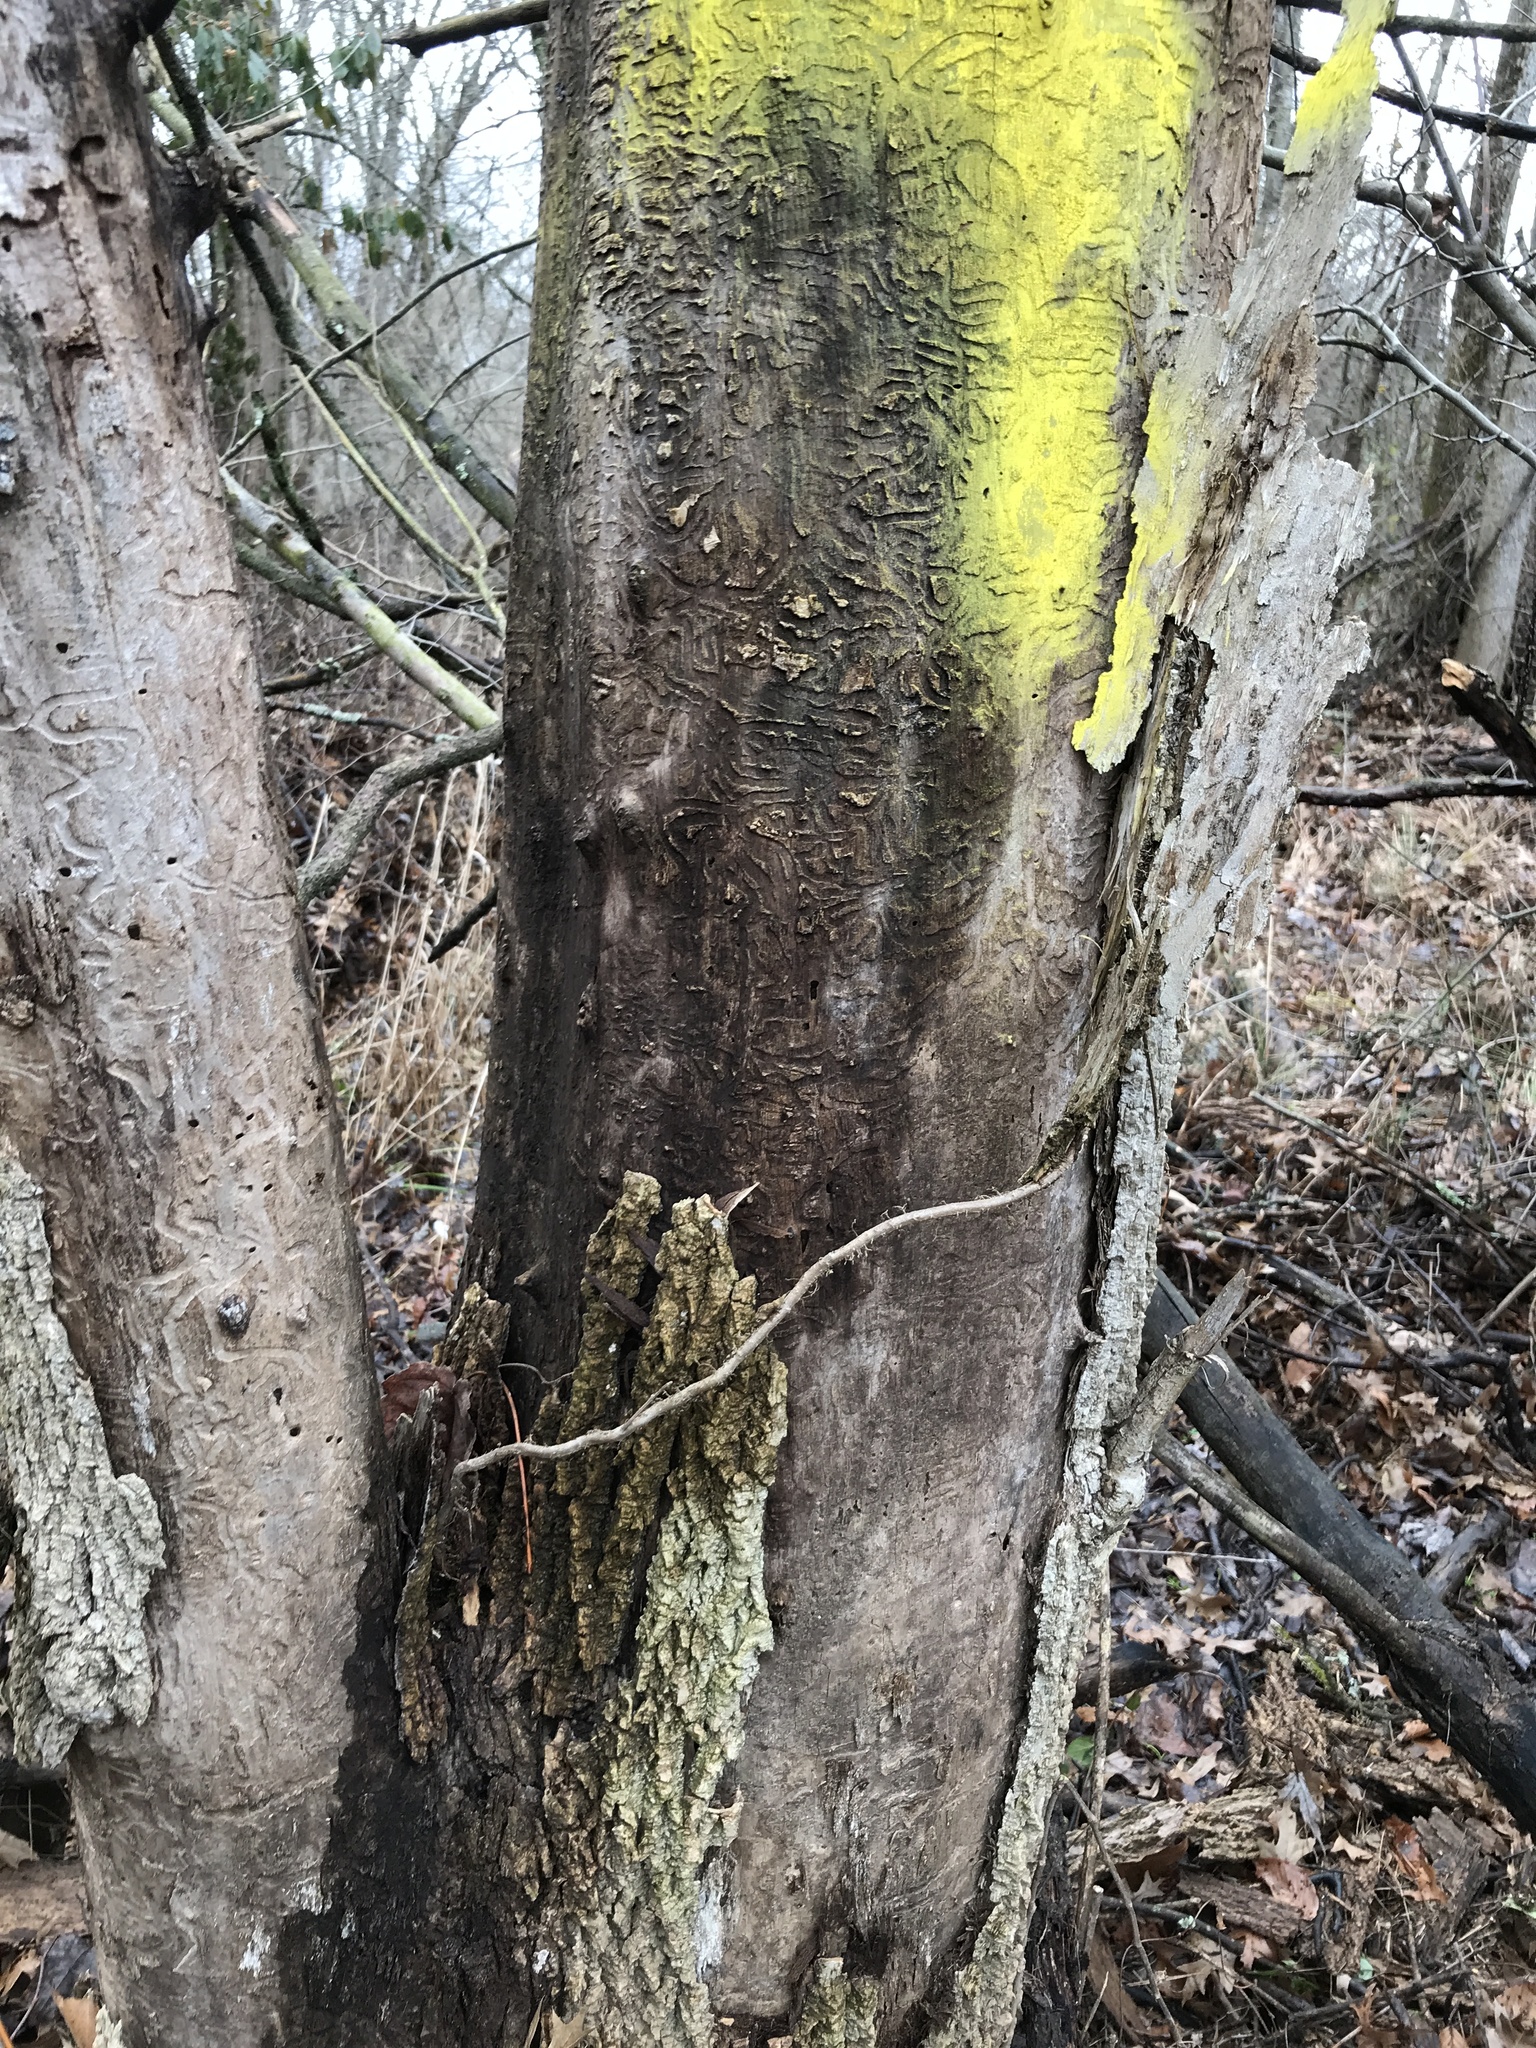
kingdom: Animalia
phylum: Arthropoda
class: Insecta
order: Coleoptera
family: Buprestidae
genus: Agrilus
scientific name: Agrilus planipennis
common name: Emerald ash borer
